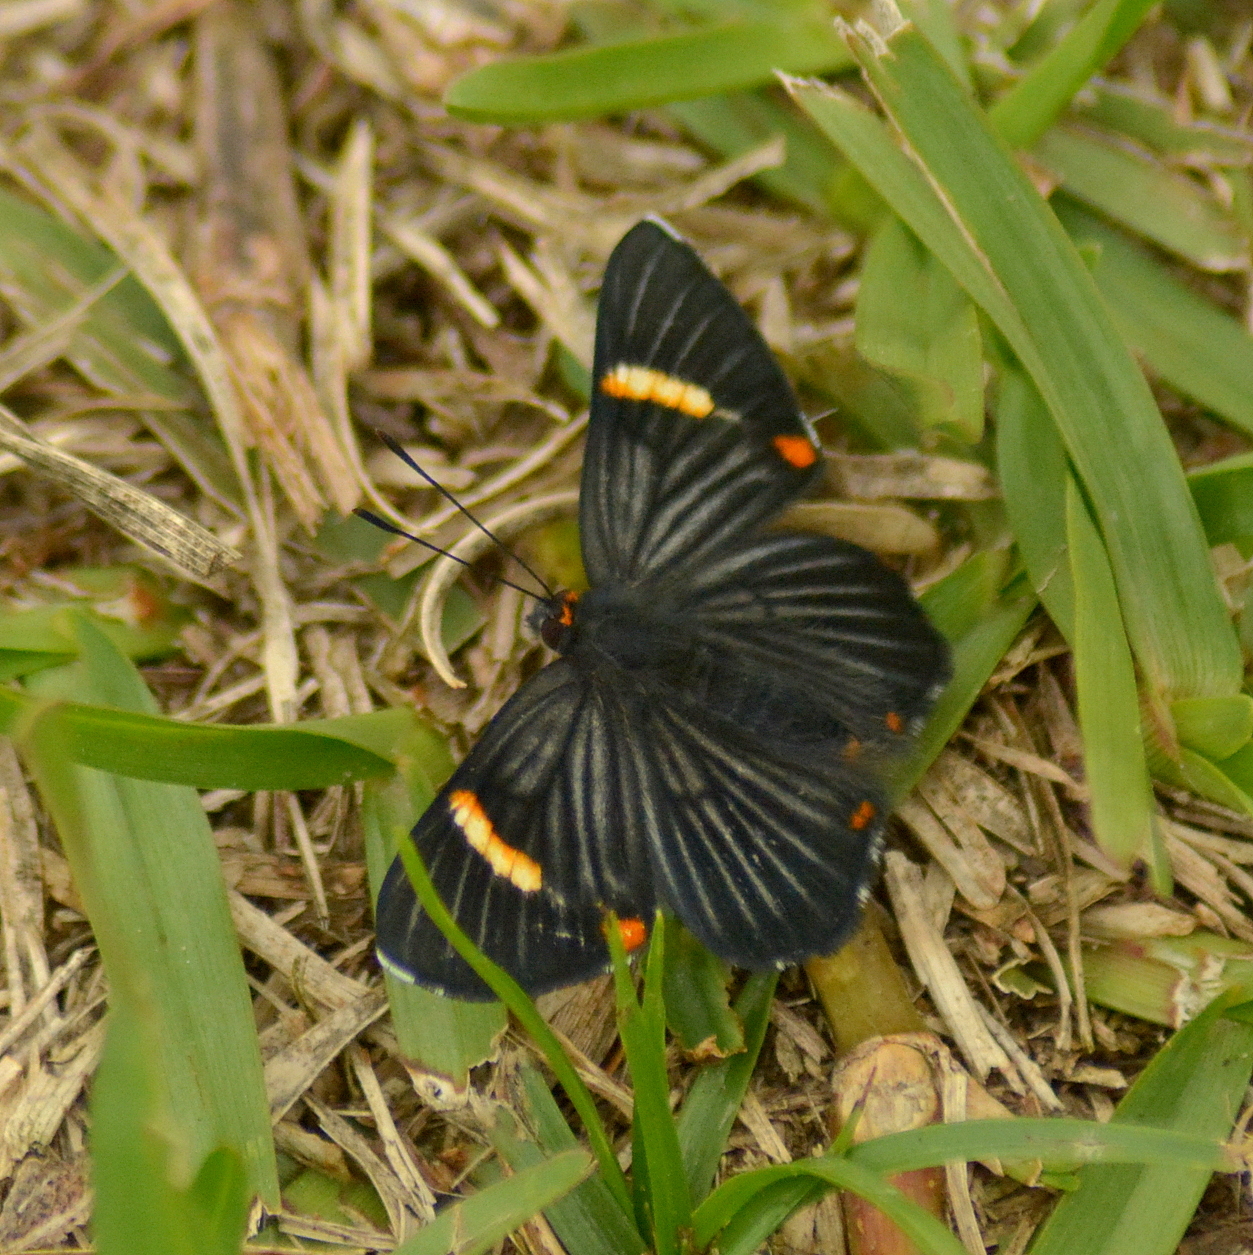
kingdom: Animalia
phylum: Arthropoda
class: Insecta
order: Lepidoptera
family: Riodinidae
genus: Riodina
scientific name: Riodina lycisca
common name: Lycisca metalmark
